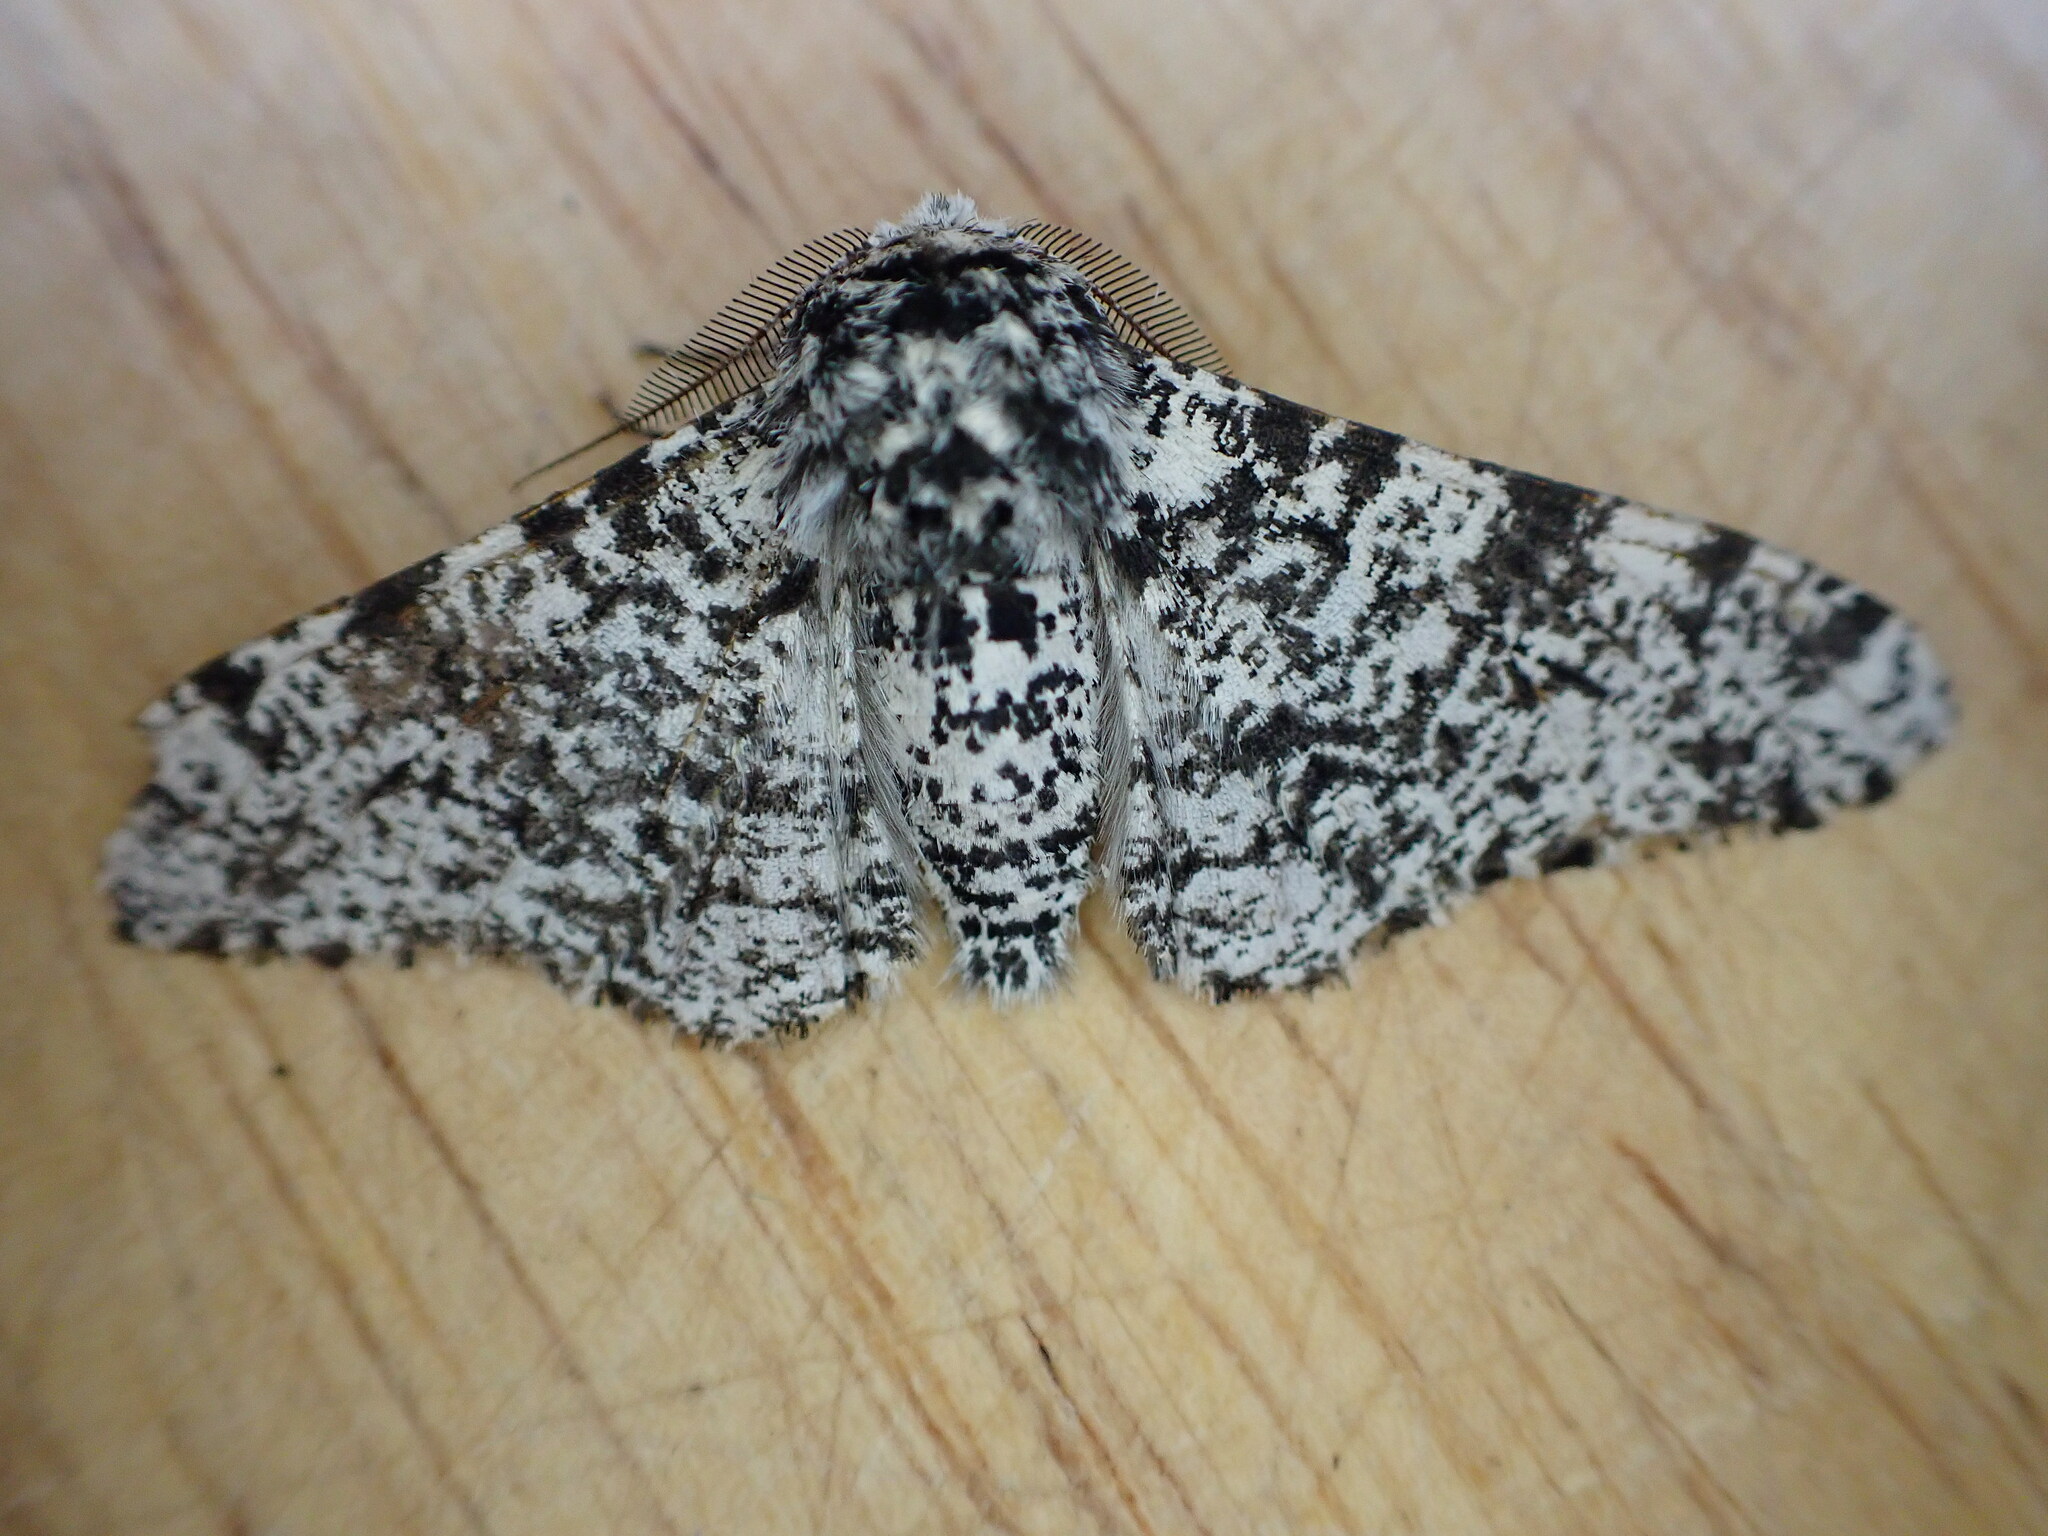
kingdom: Animalia
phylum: Arthropoda
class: Insecta
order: Lepidoptera
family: Geometridae
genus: Biston
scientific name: Biston betularia
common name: Peppered moth
